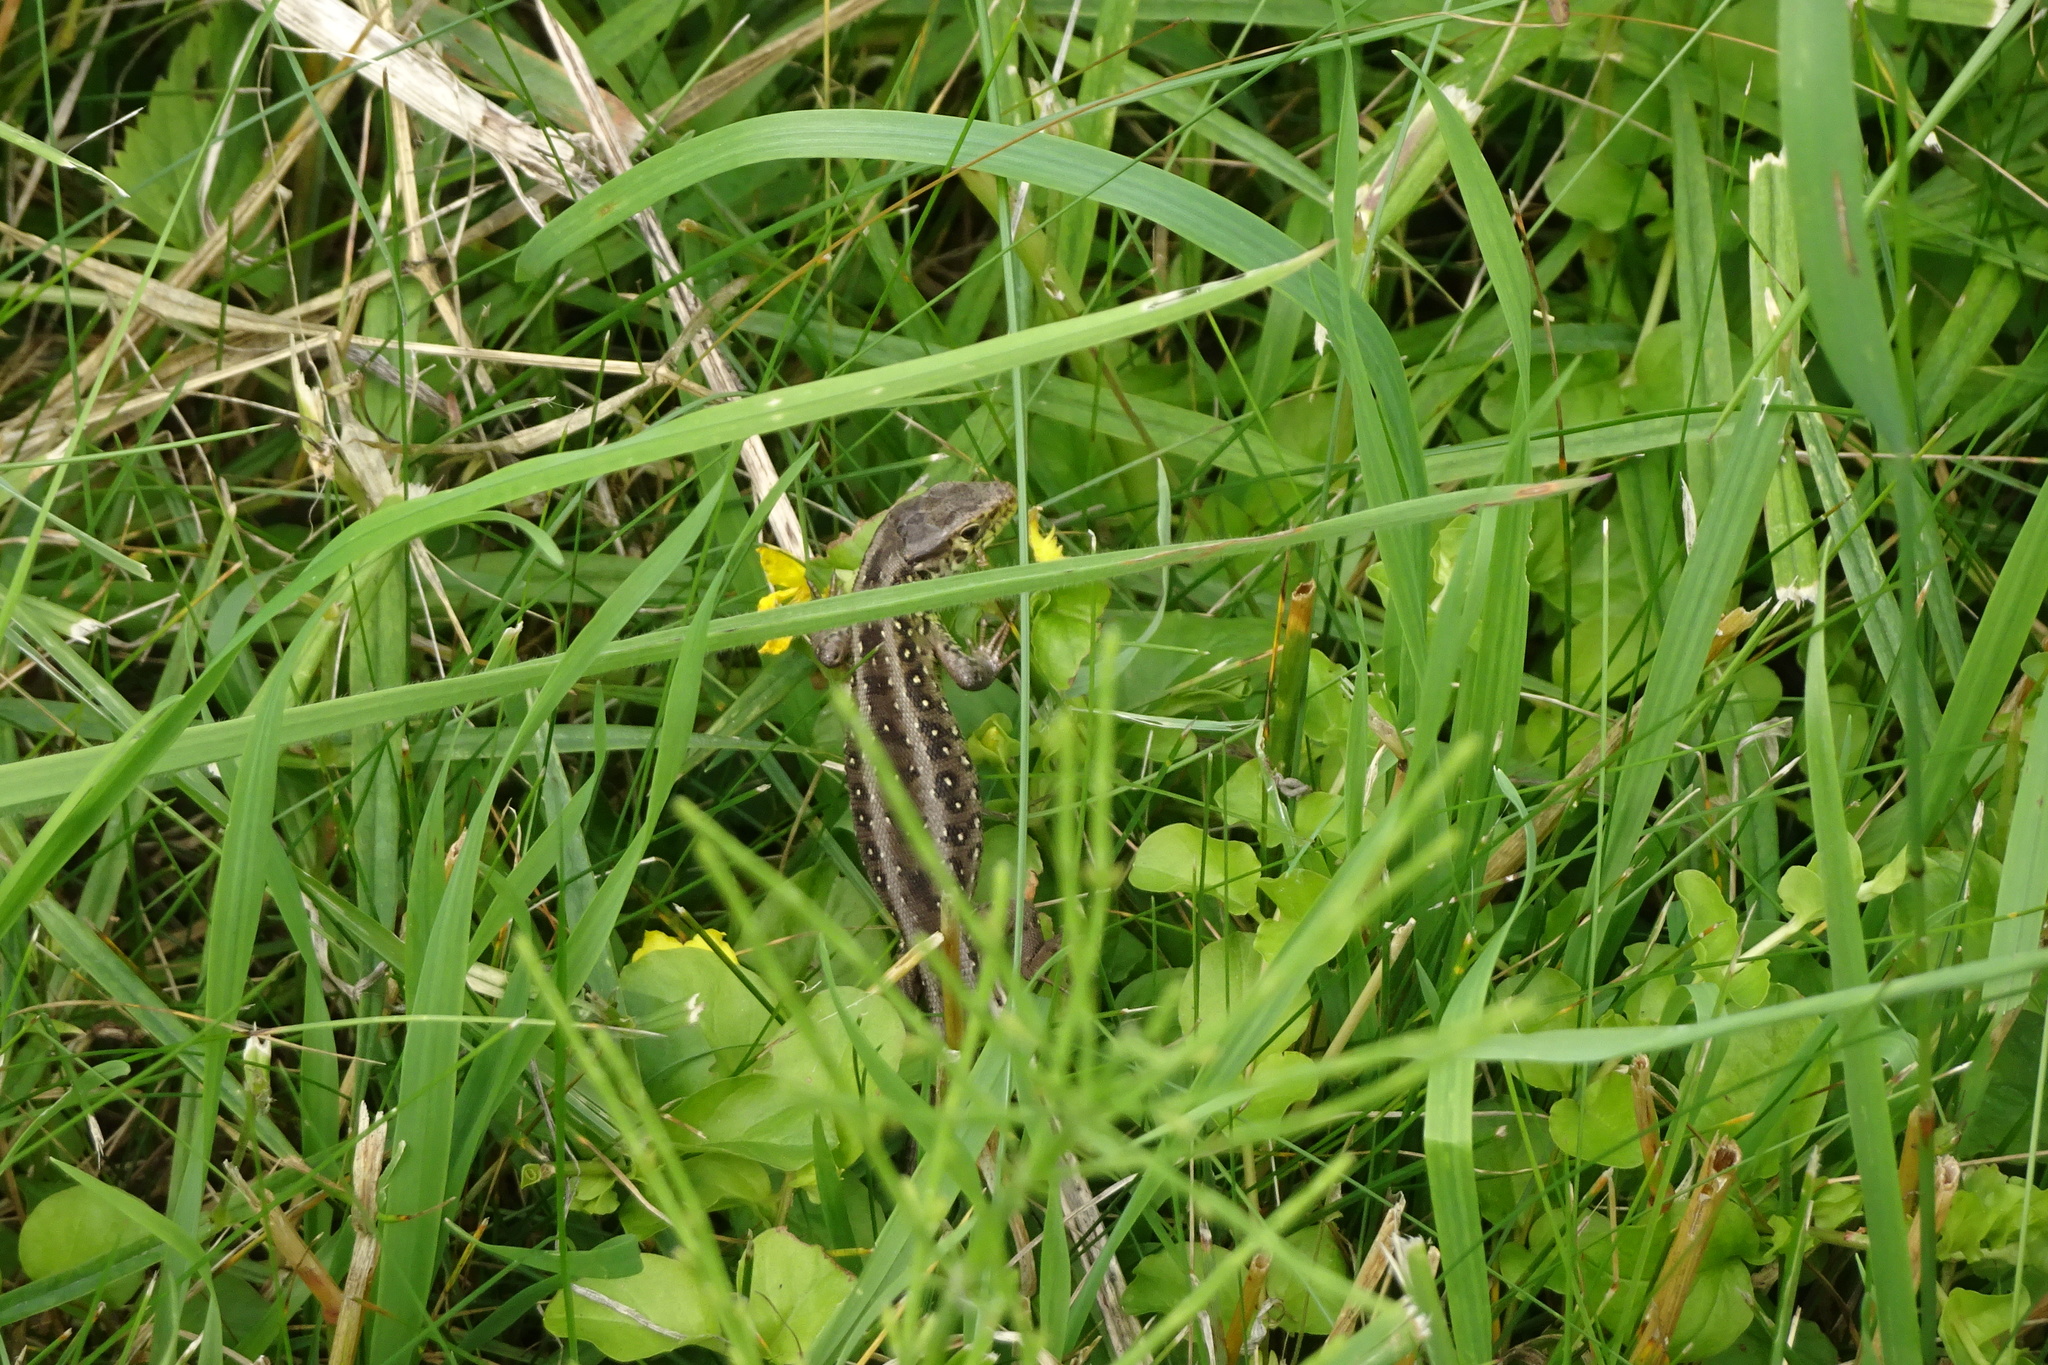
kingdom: Animalia
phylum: Chordata
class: Squamata
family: Lacertidae
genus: Lacerta
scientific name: Lacerta agilis
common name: Sand lizard
